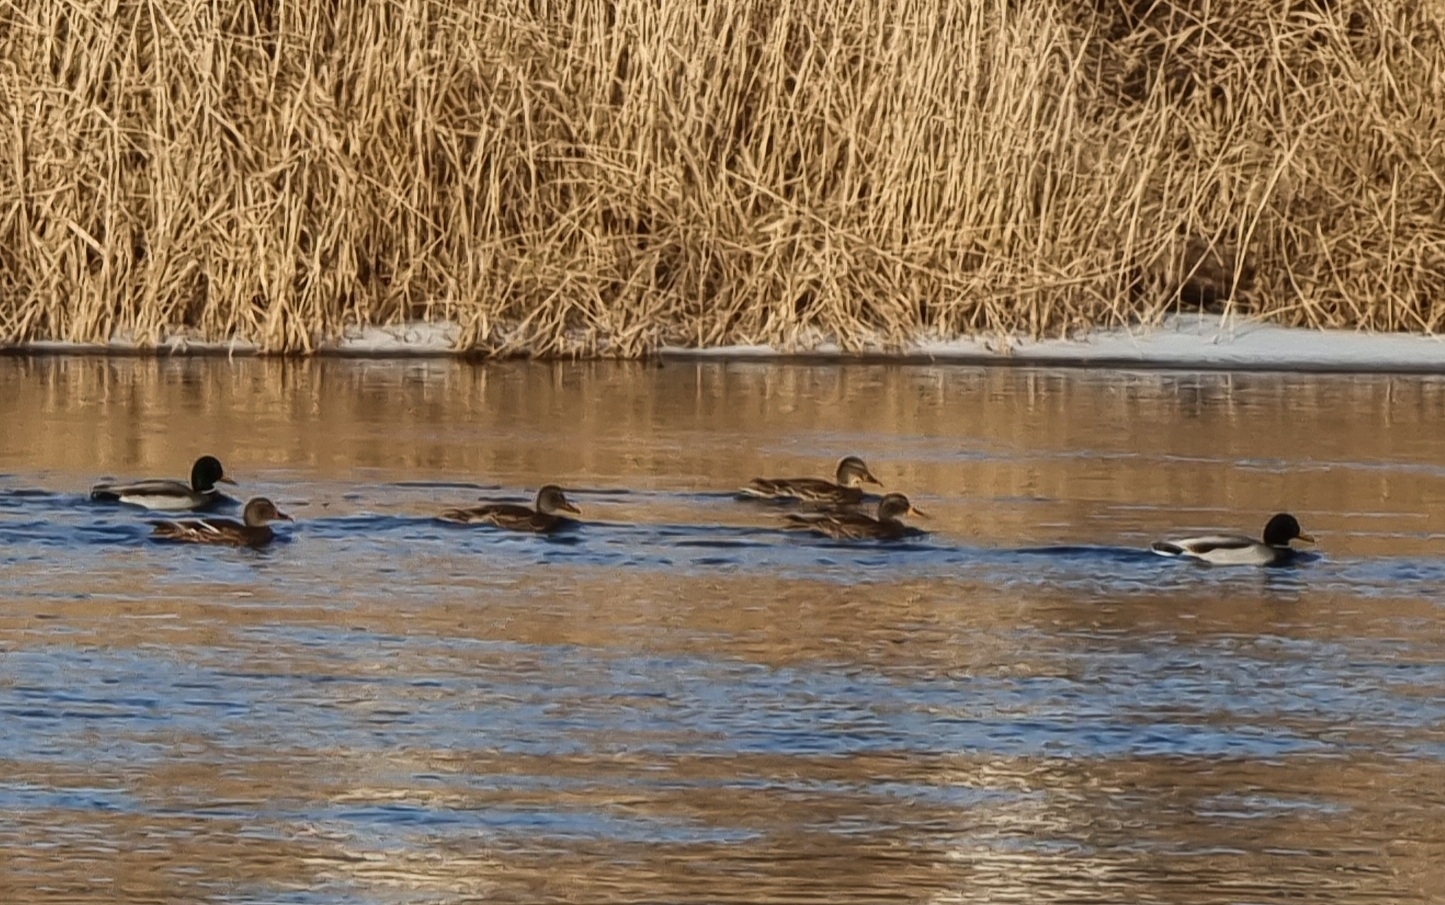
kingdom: Animalia
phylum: Chordata
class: Aves
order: Anseriformes
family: Anatidae
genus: Anas
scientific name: Anas platyrhynchos
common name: Mallard
